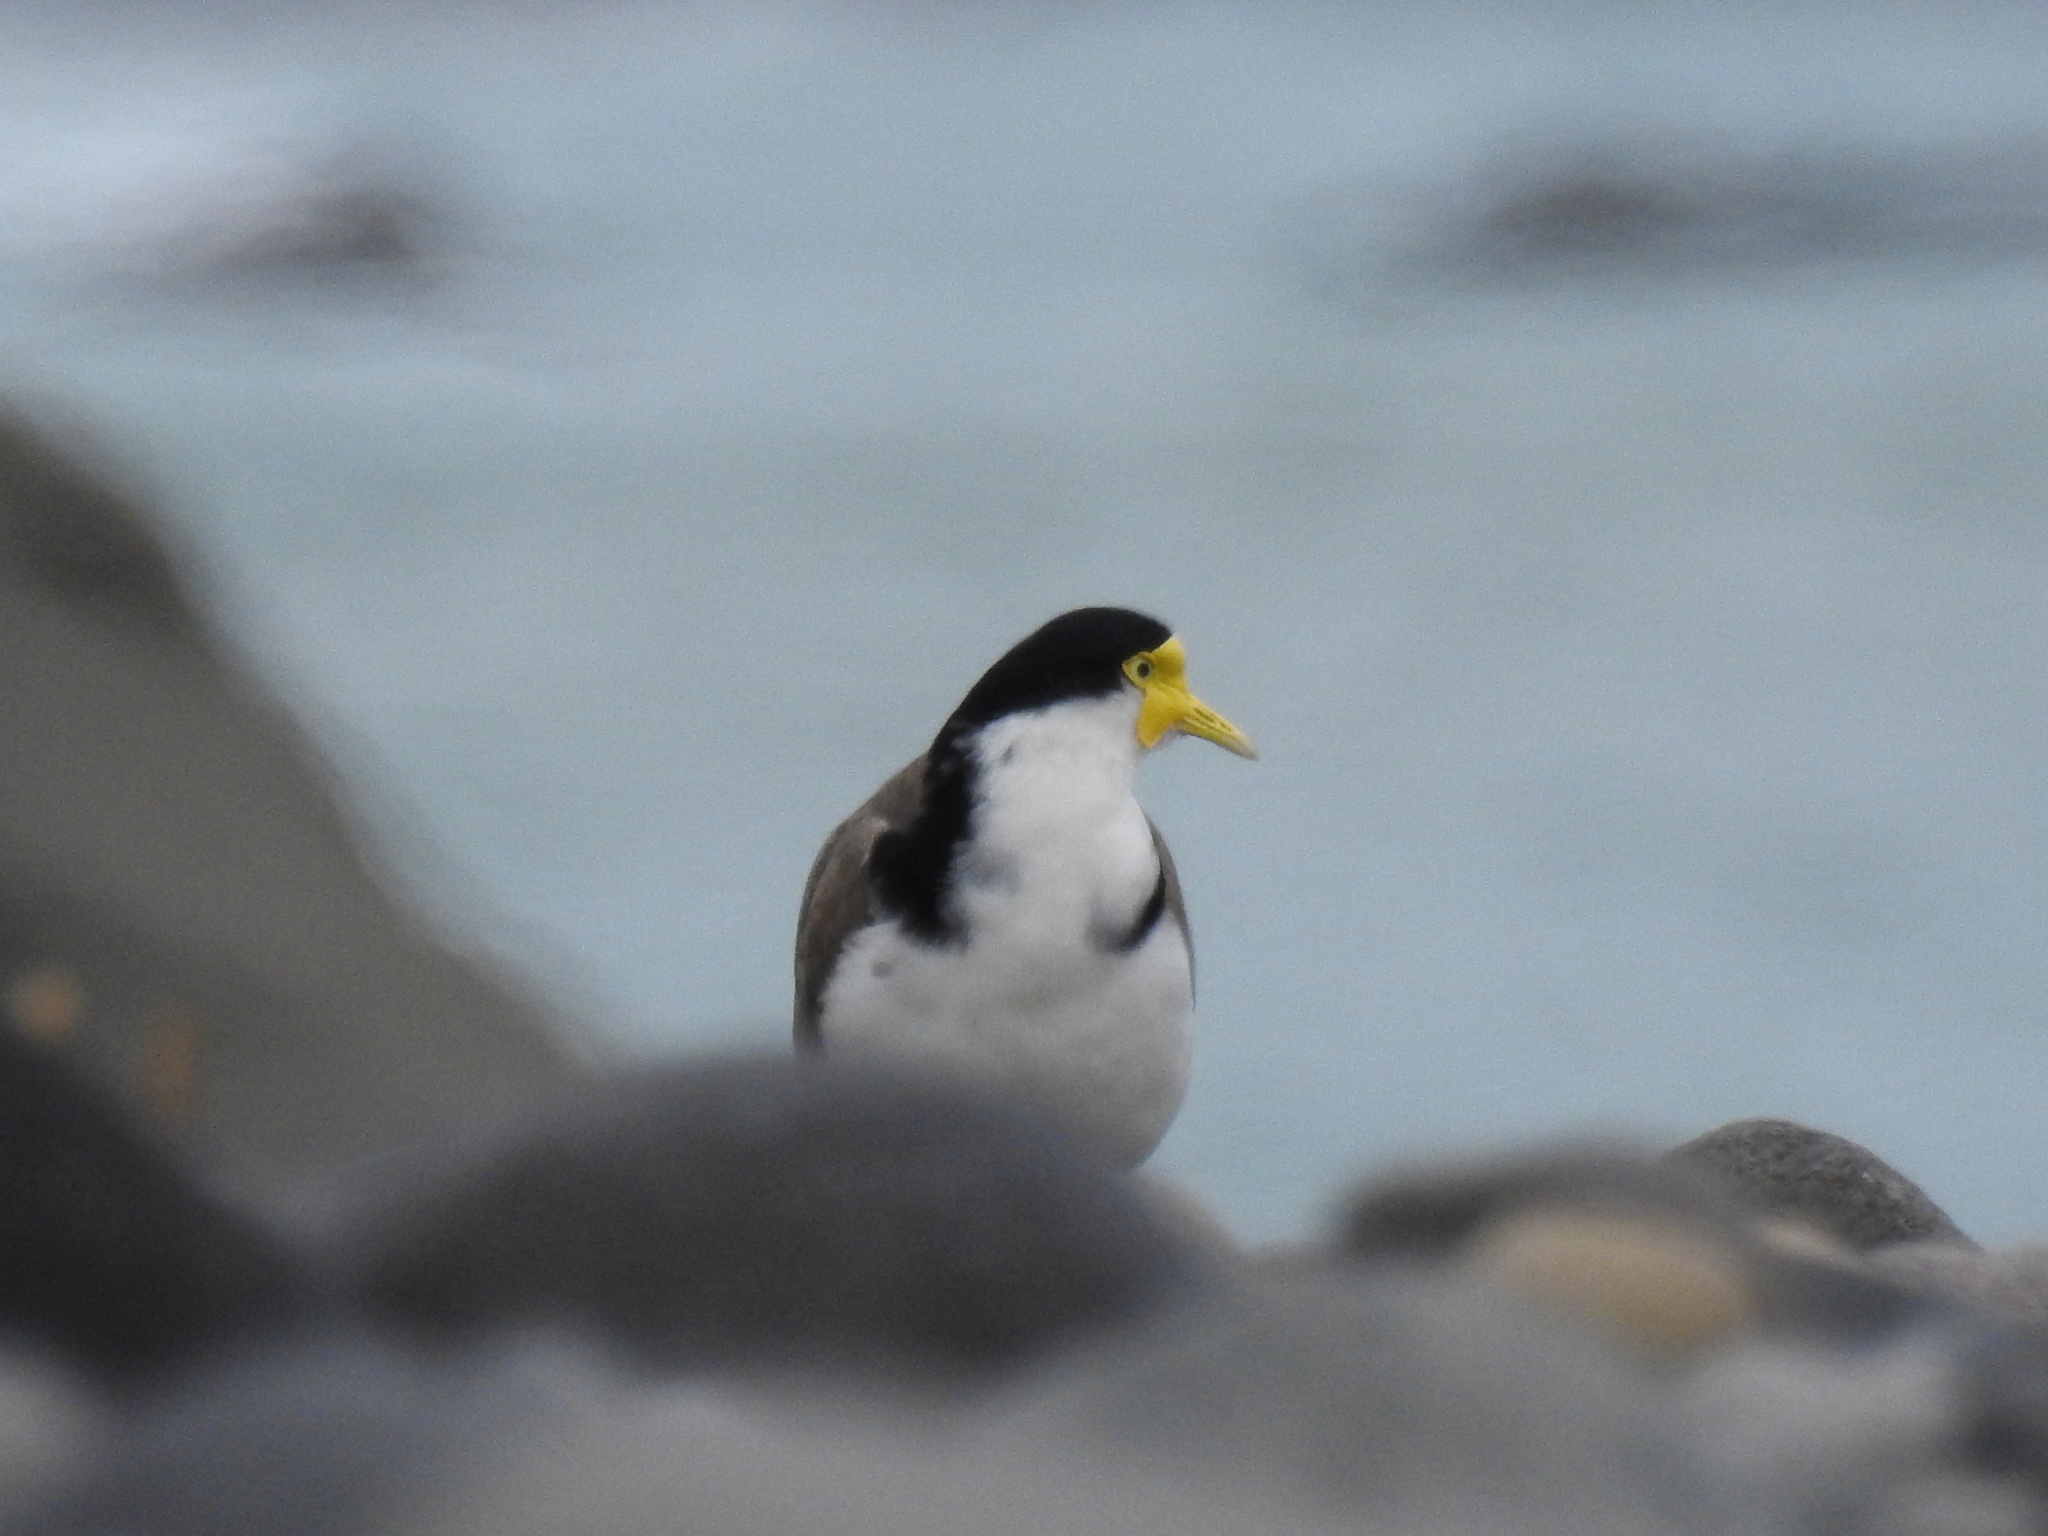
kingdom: Animalia
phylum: Chordata
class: Aves
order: Charadriiformes
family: Charadriidae
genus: Vanellus
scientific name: Vanellus miles
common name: Masked lapwing
